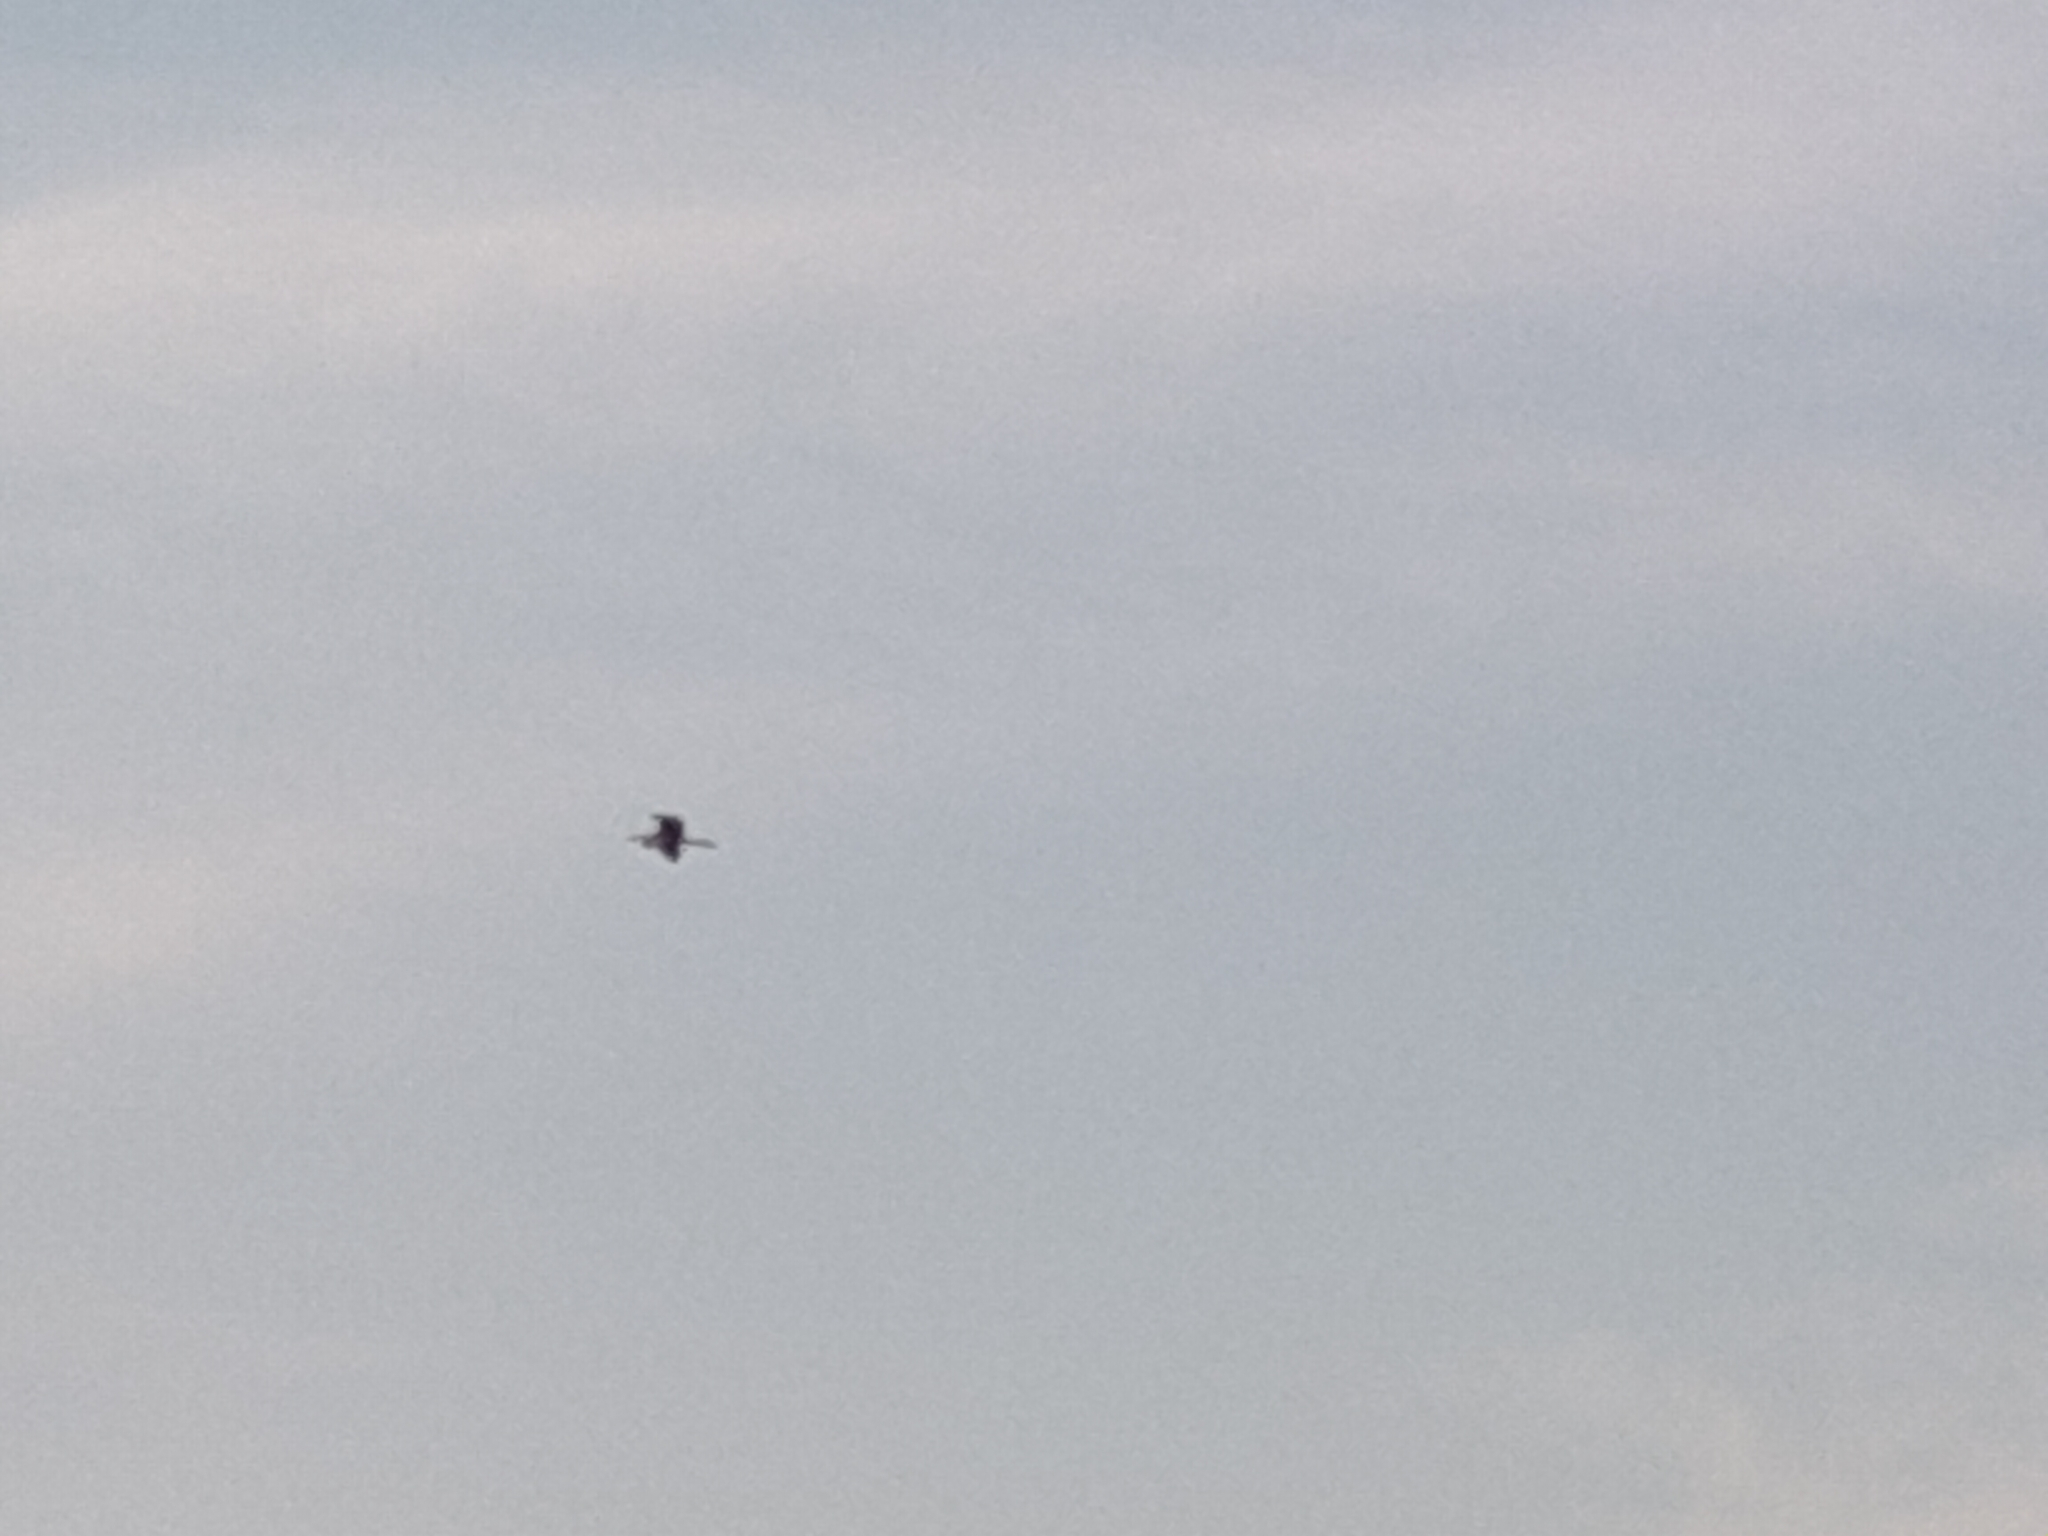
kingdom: Animalia
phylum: Chordata
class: Aves
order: Pelecaniformes
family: Ardeidae
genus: Ardea
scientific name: Ardea purpurea
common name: Purple heron
